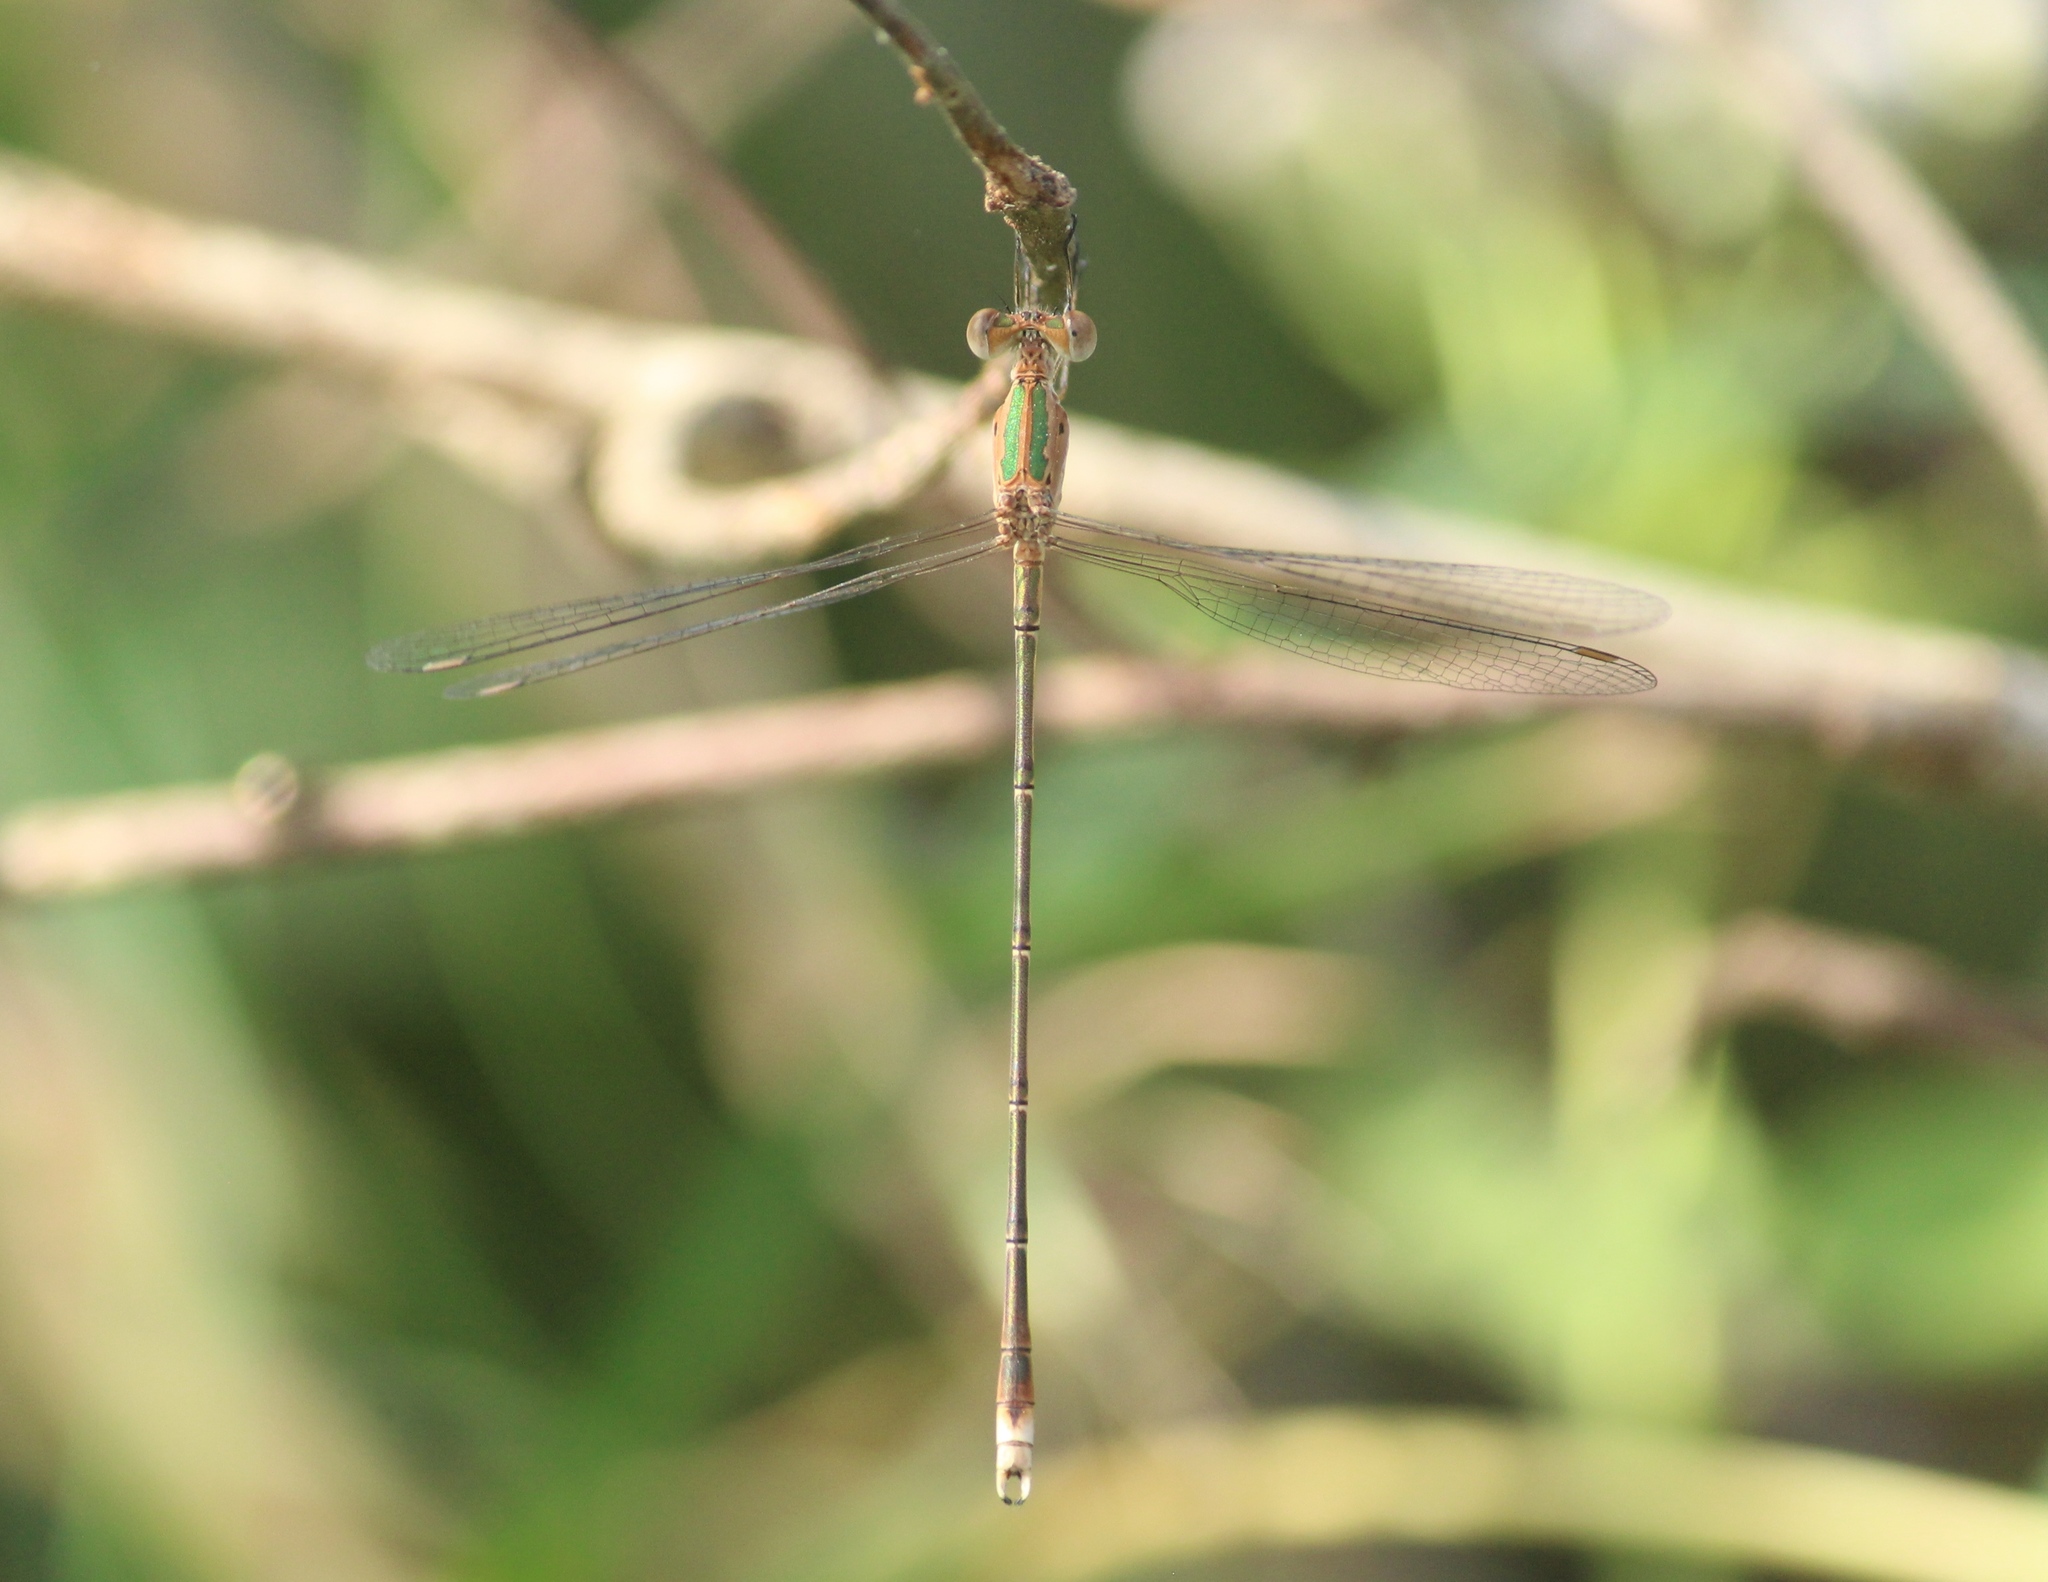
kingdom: Animalia
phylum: Arthropoda
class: Insecta
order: Odonata
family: Lestidae
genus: Lestes
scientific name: Lestes elatus
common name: Emerald spreadwing
